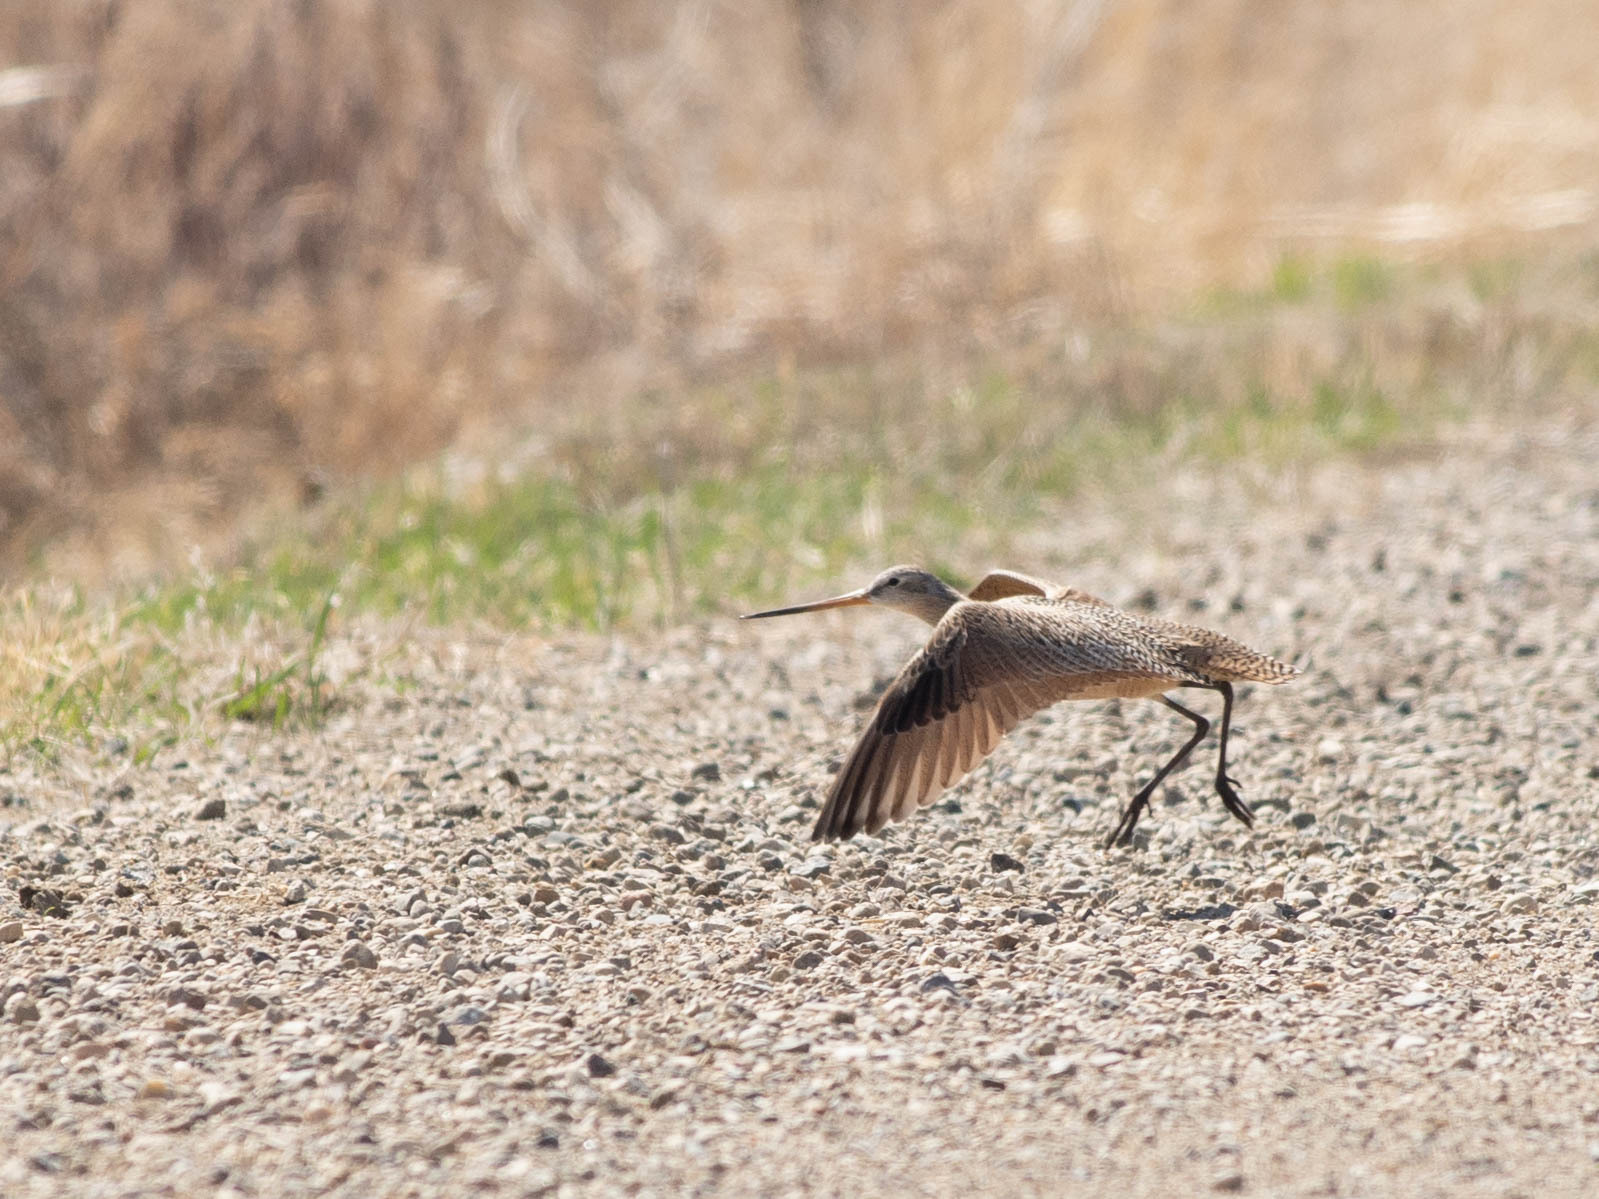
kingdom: Animalia
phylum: Chordata
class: Aves
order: Charadriiformes
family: Scolopacidae
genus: Limosa
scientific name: Limosa fedoa
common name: Marbled godwit
